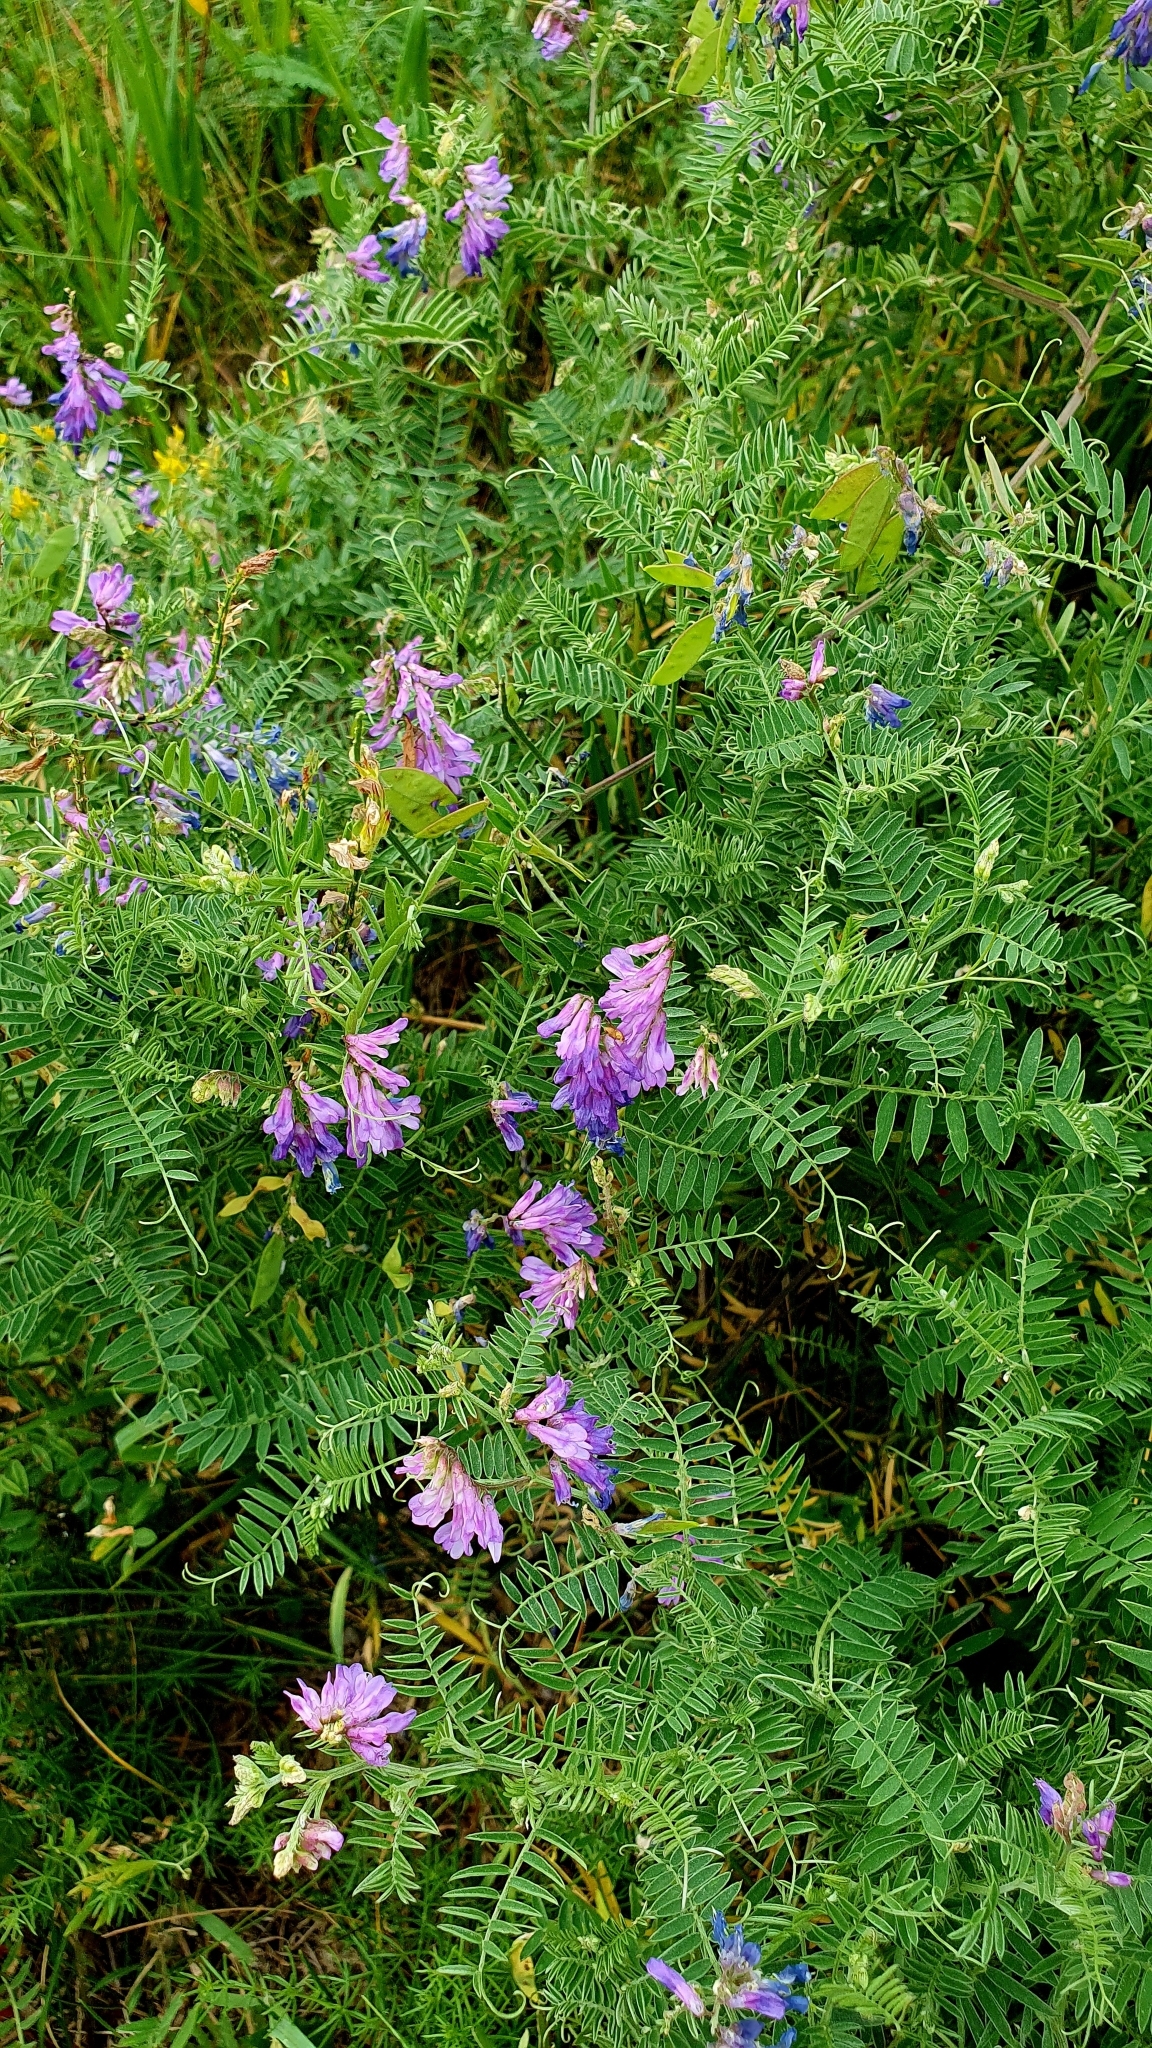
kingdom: Plantae
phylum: Tracheophyta
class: Magnoliopsida
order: Fabales
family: Fabaceae
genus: Vicia
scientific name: Vicia cracca
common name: Bird vetch
